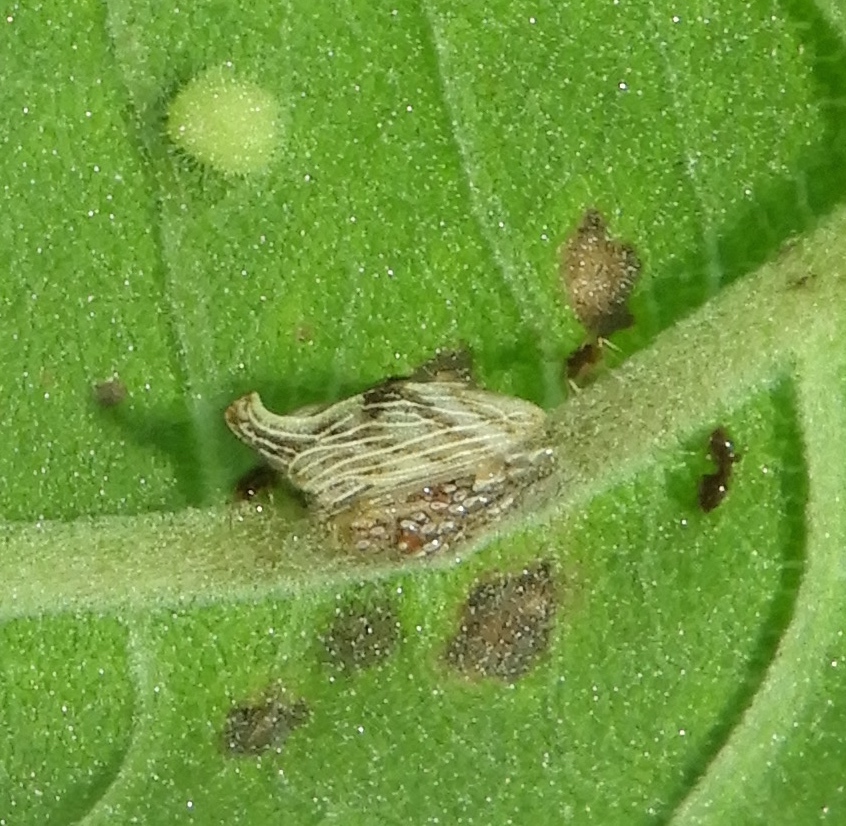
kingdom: Animalia
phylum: Arthropoda
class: Insecta
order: Hemiptera
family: Membracidae
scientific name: Membracidae
